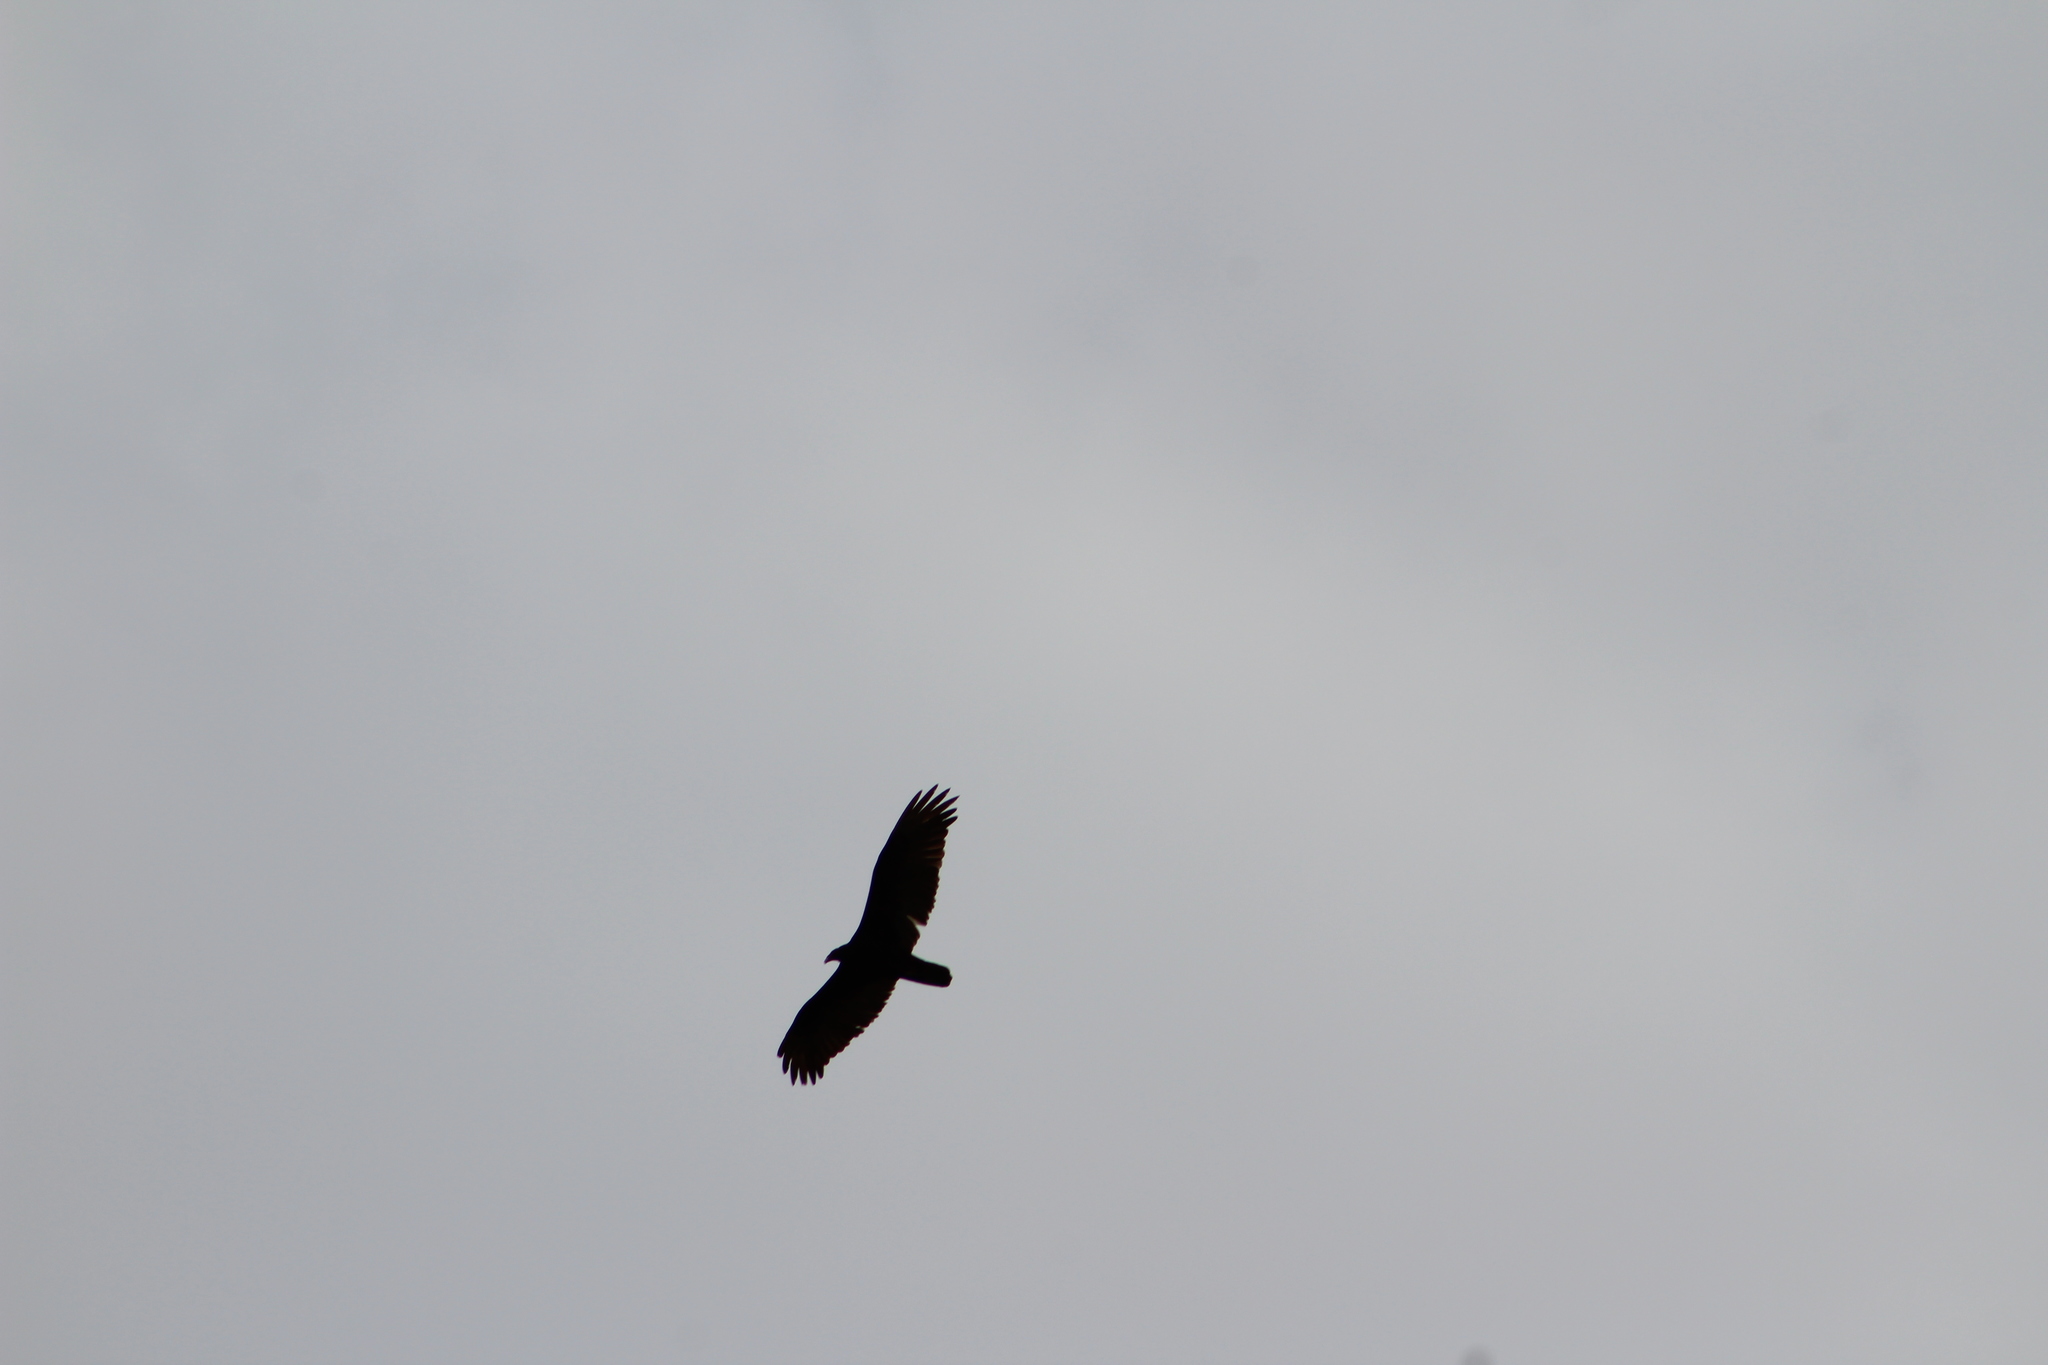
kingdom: Animalia
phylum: Chordata
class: Aves
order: Accipitriformes
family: Cathartidae
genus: Cathartes
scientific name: Cathartes aura
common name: Turkey vulture
